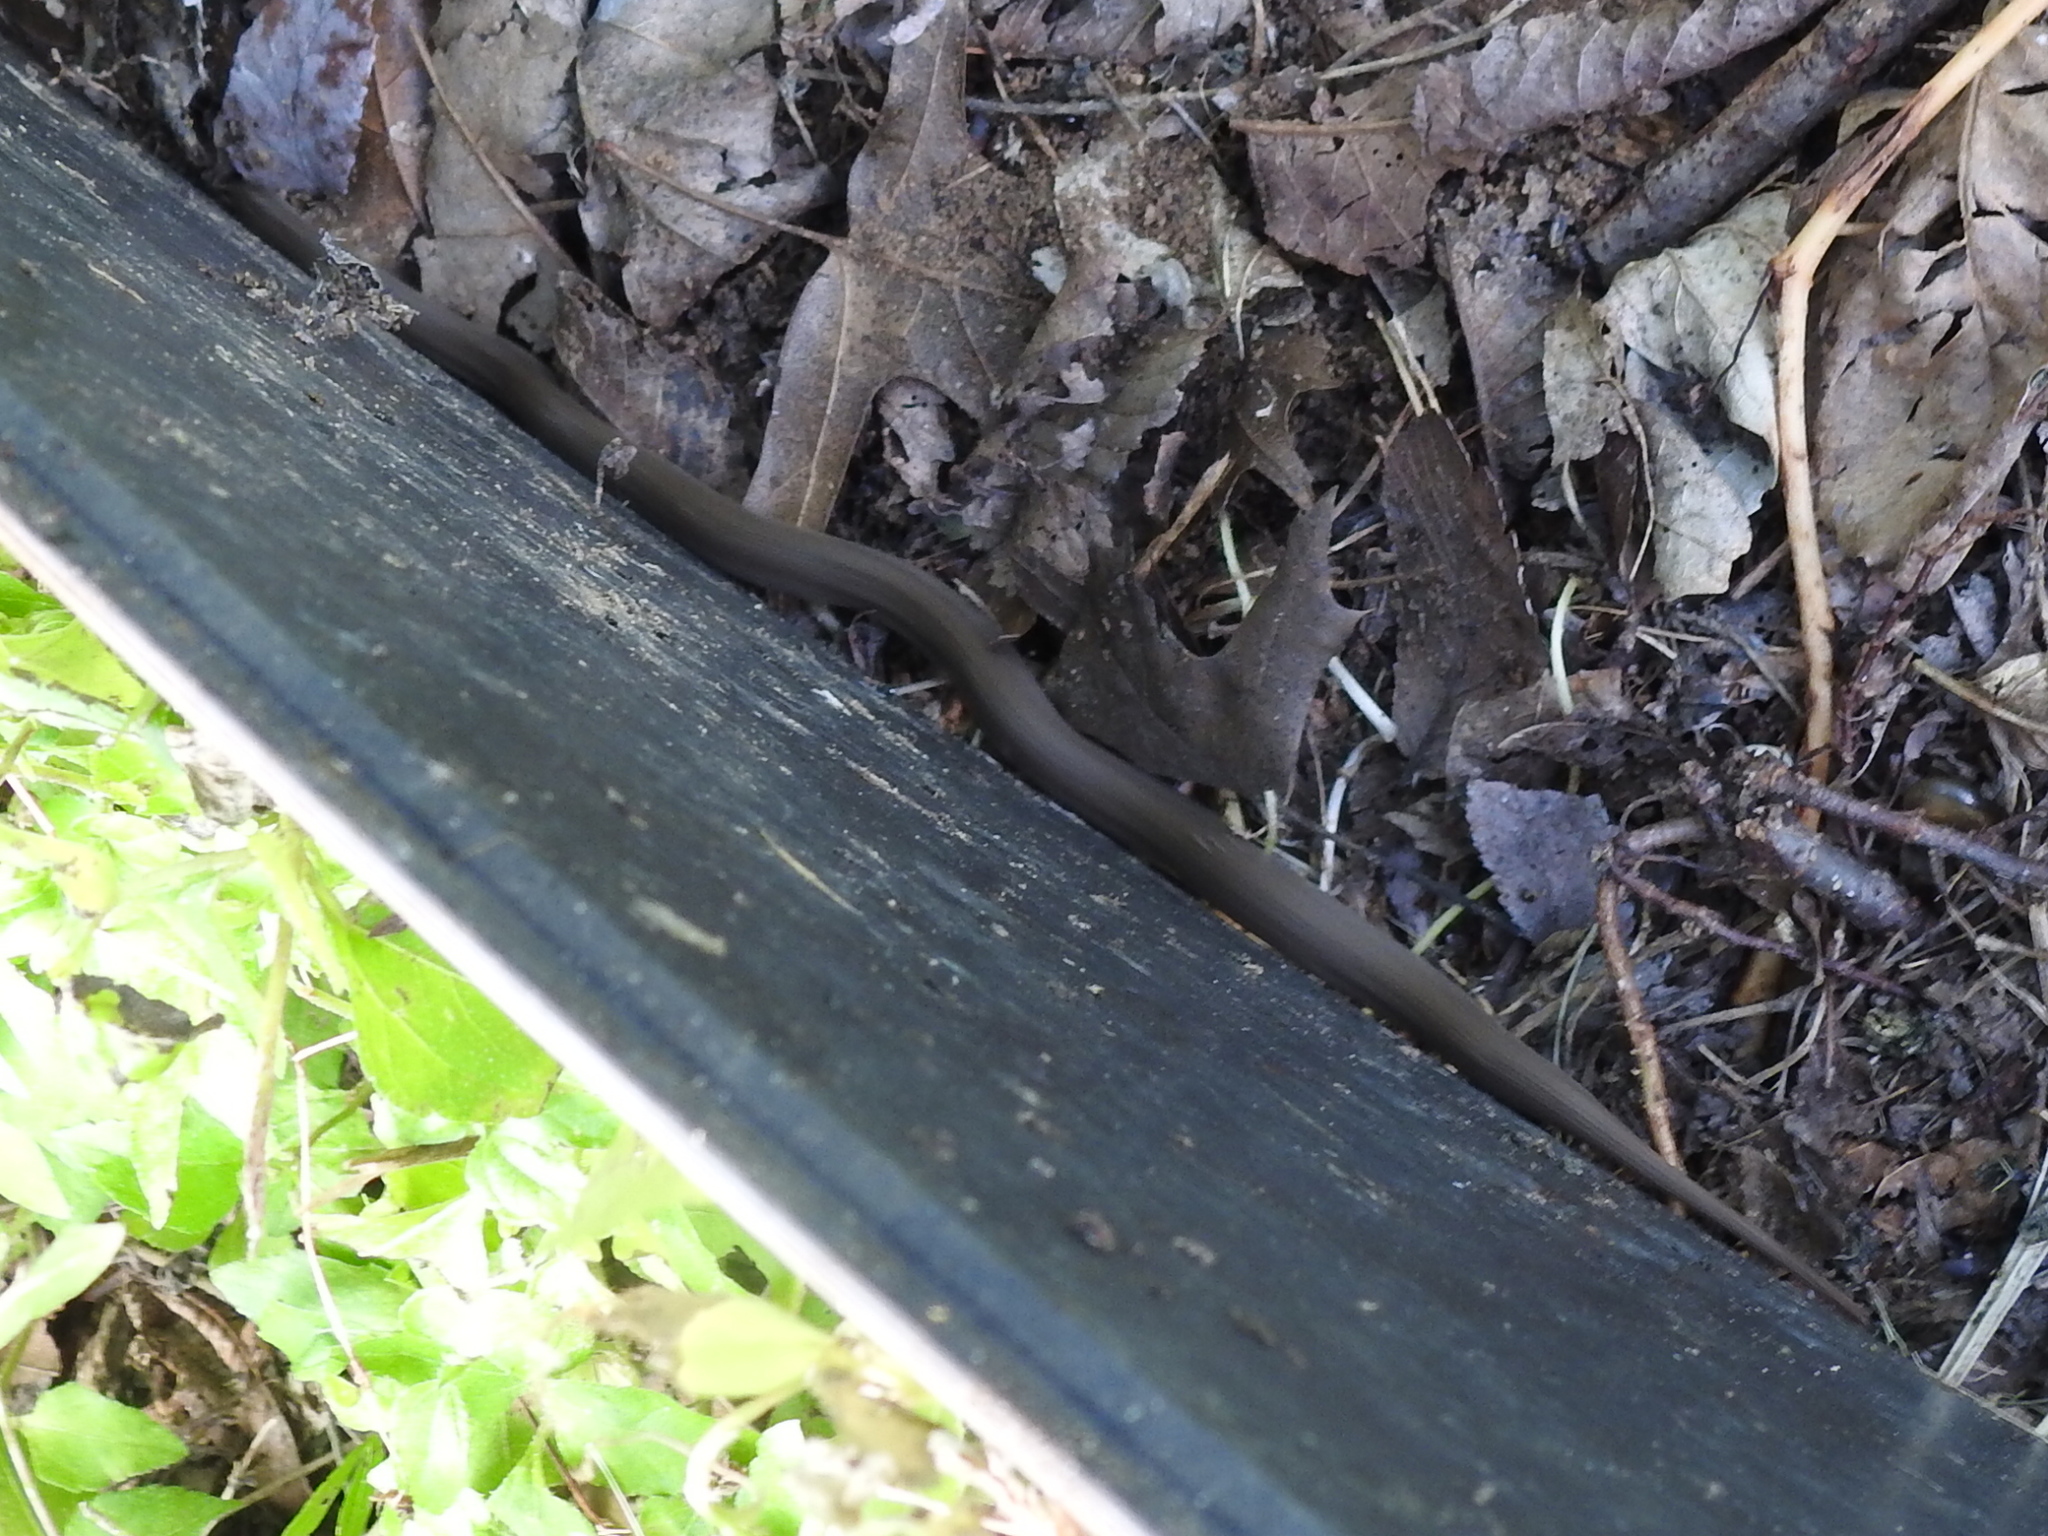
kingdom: Animalia
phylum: Chordata
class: Squamata
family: Colubridae
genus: Haldea
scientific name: Haldea striatula
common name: Rough earth snake
